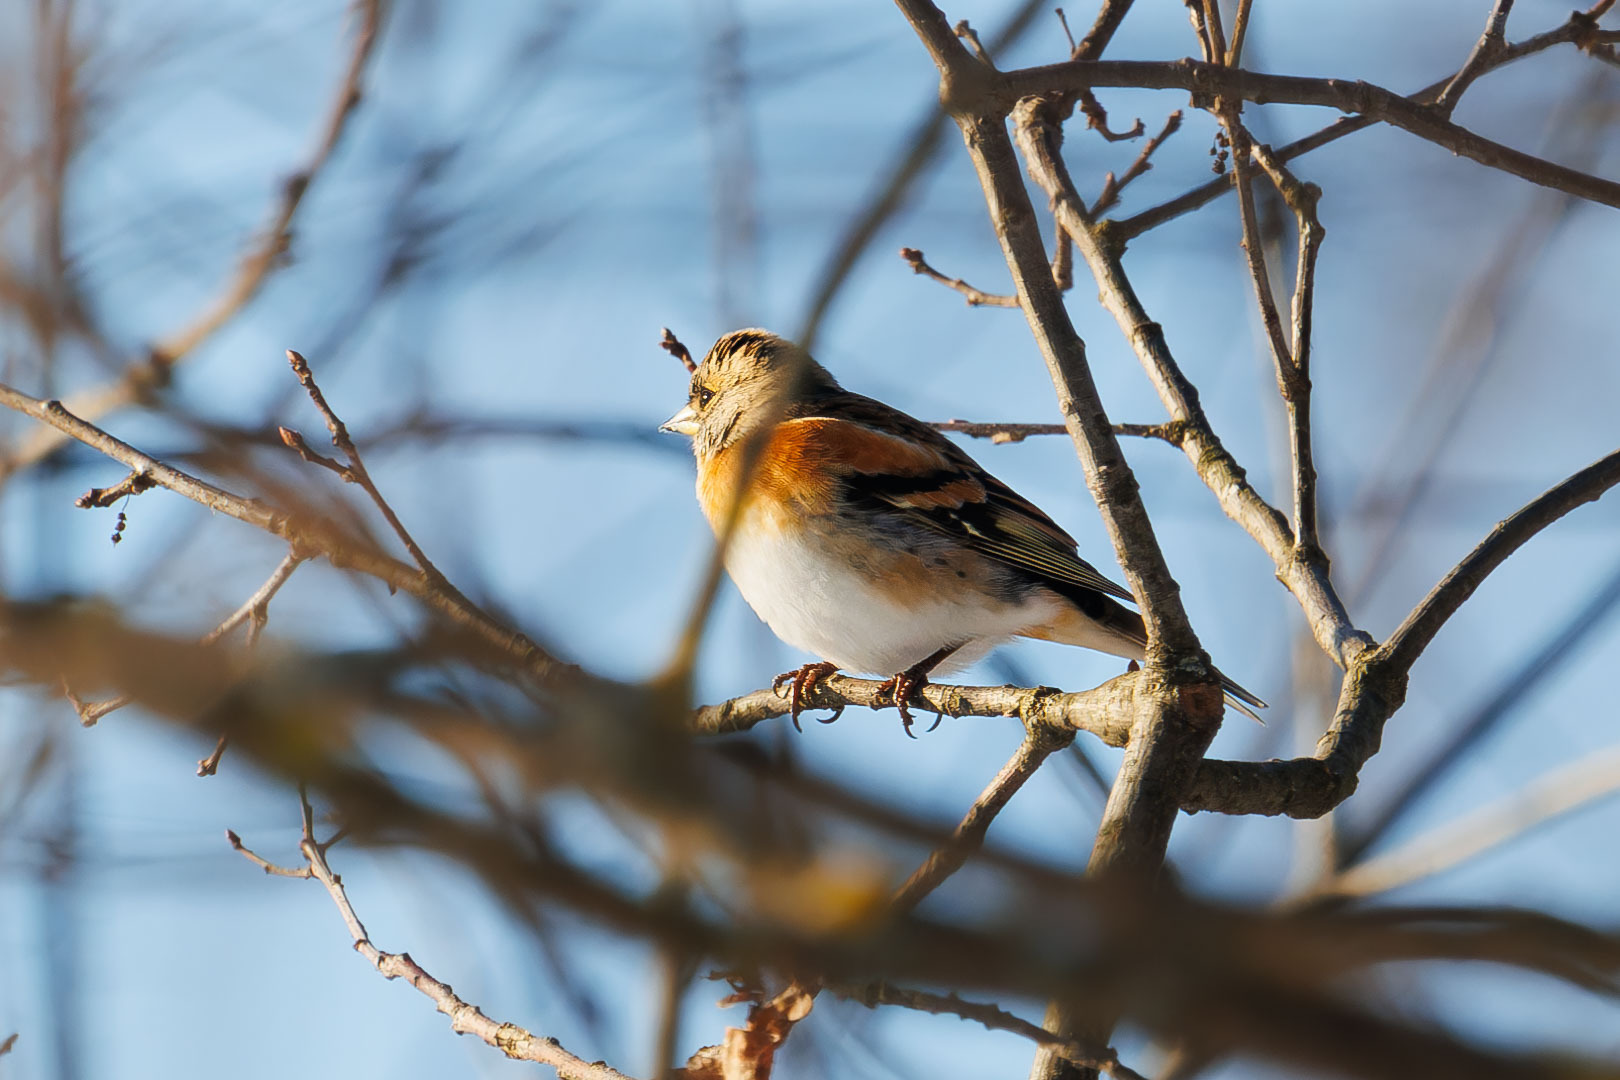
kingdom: Animalia
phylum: Chordata
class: Aves
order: Passeriformes
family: Fringillidae
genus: Fringilla
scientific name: Fringilla montifringilla
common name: Brambling
